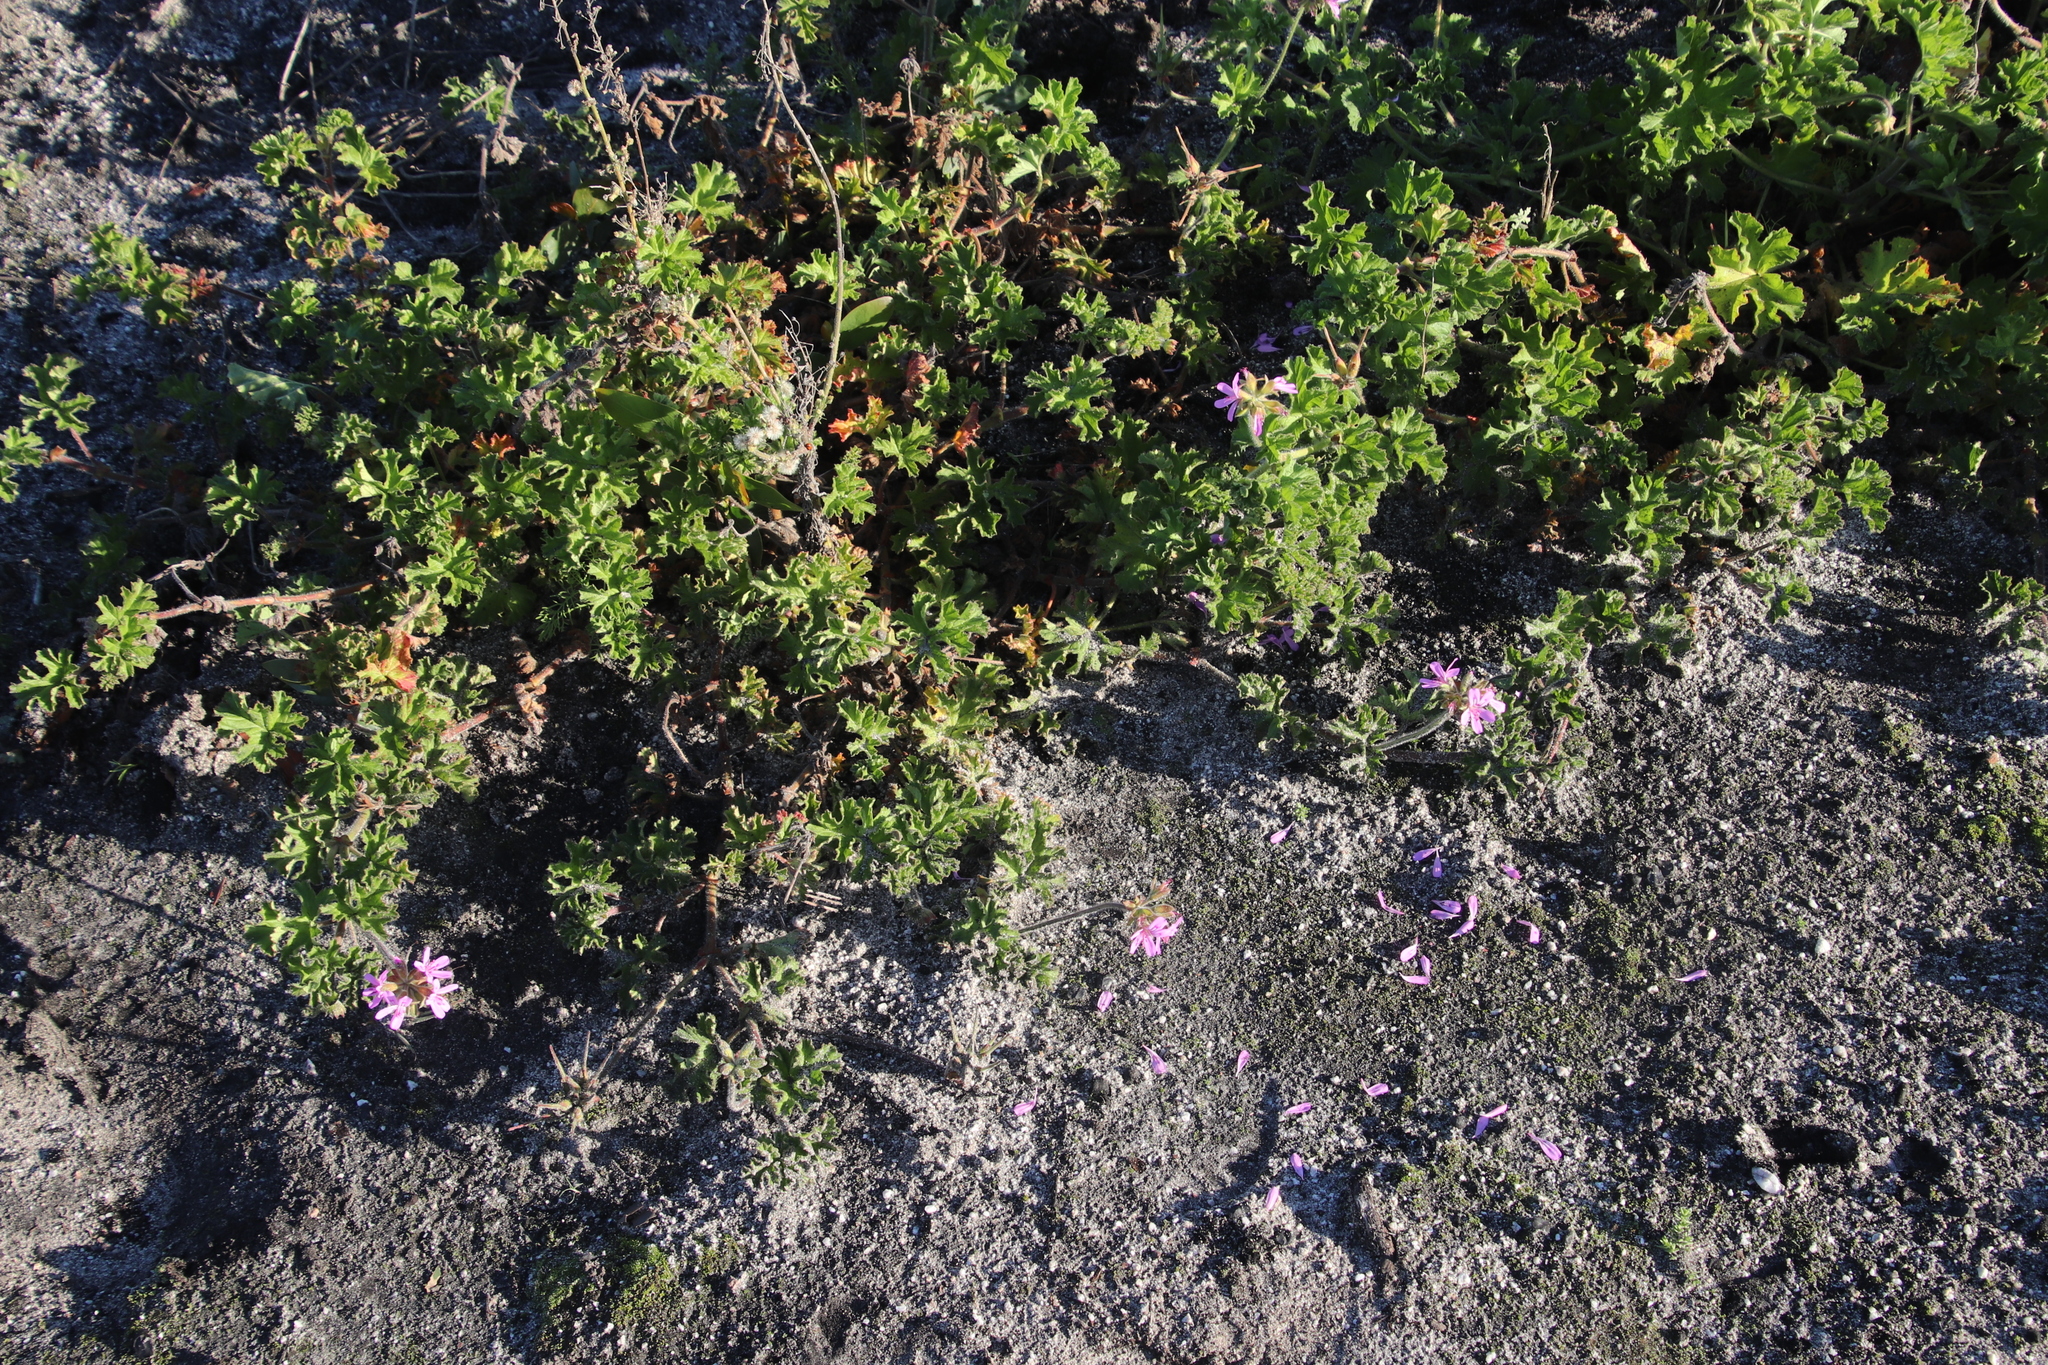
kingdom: Plantae
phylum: Tracheophyta
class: Magnoliopsida
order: Geraniales
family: Geraniaceae
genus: Pelargonium
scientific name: Pelargonium capitatum
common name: Rose scented geranium
